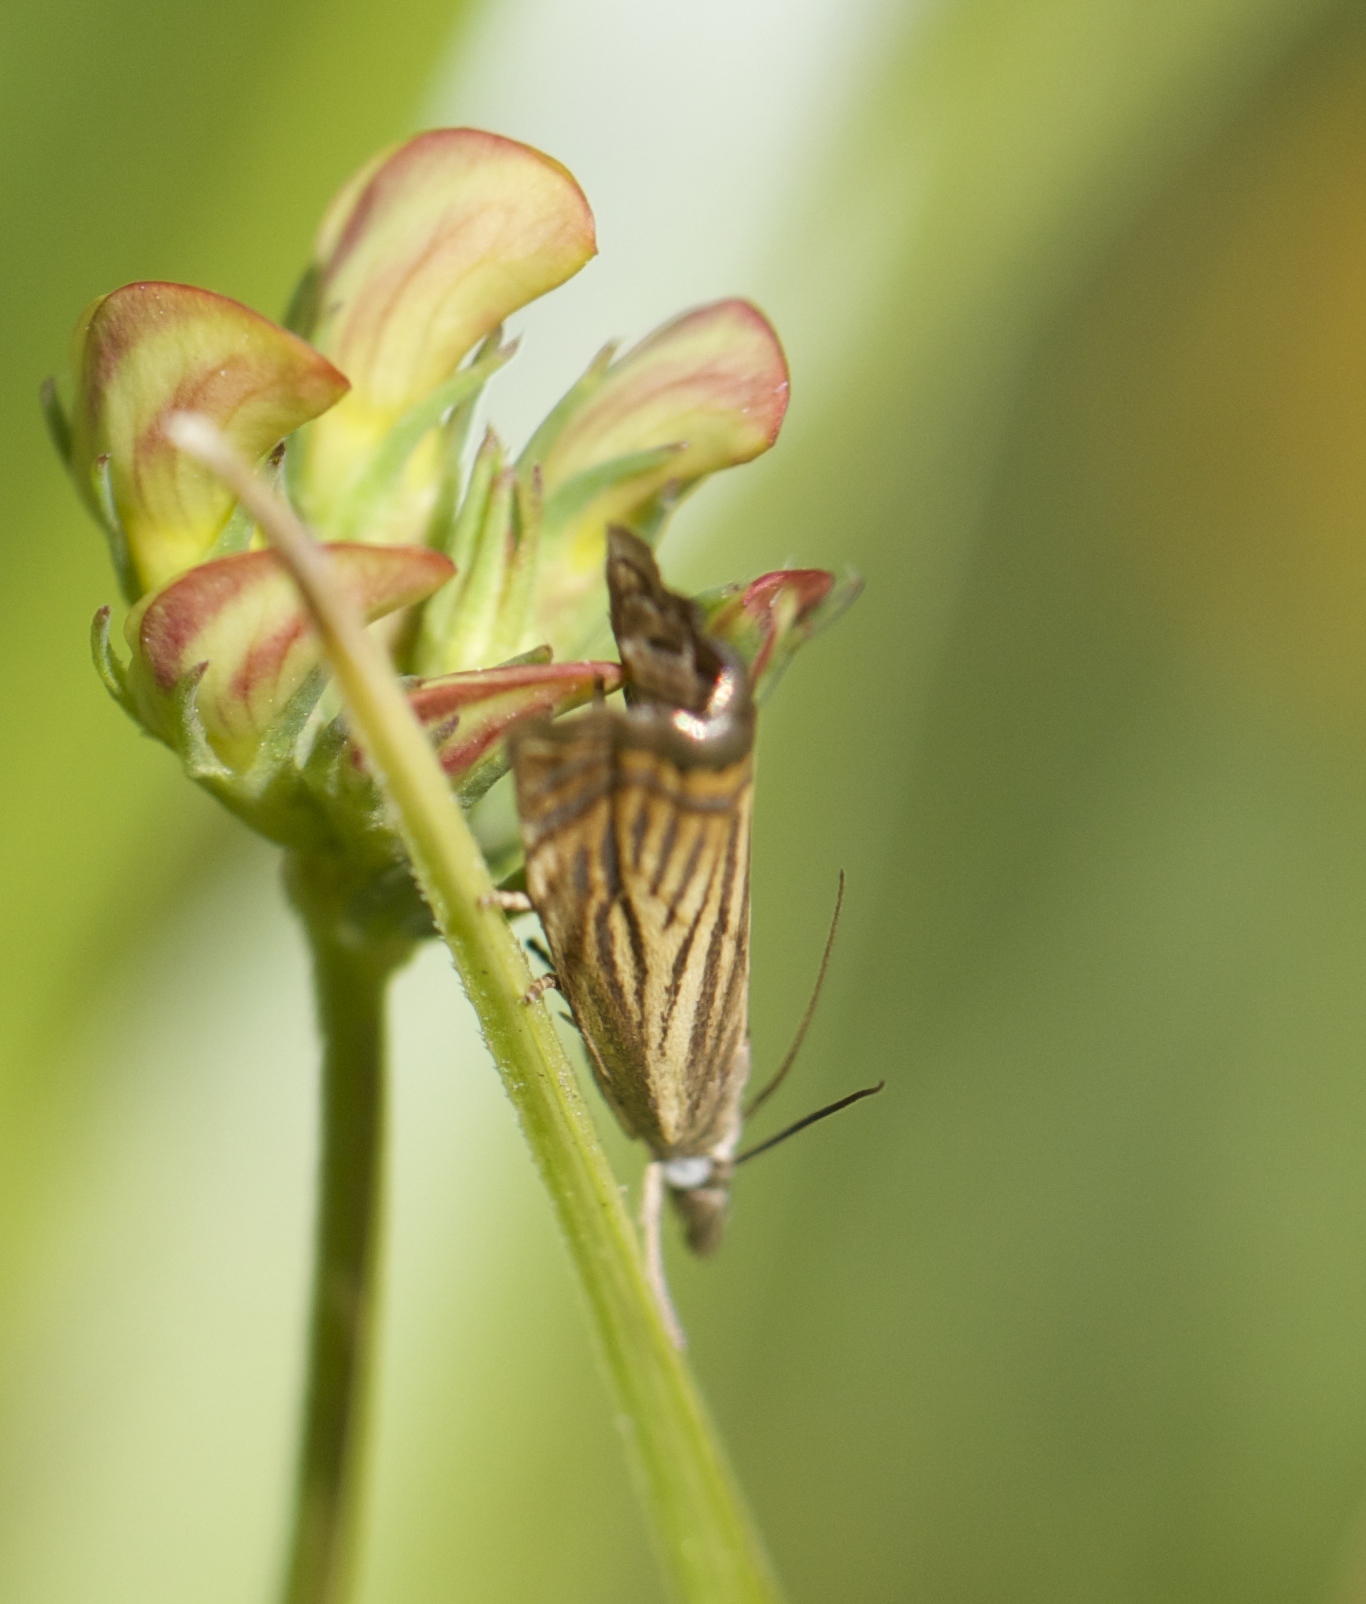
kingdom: Animalia
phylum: Arthropoda
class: Insecta
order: Lepidoptera
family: Crambidae
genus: Chrysoteuchia
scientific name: Chrysoteuchia topiarius
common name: Topiary grass-veneer
